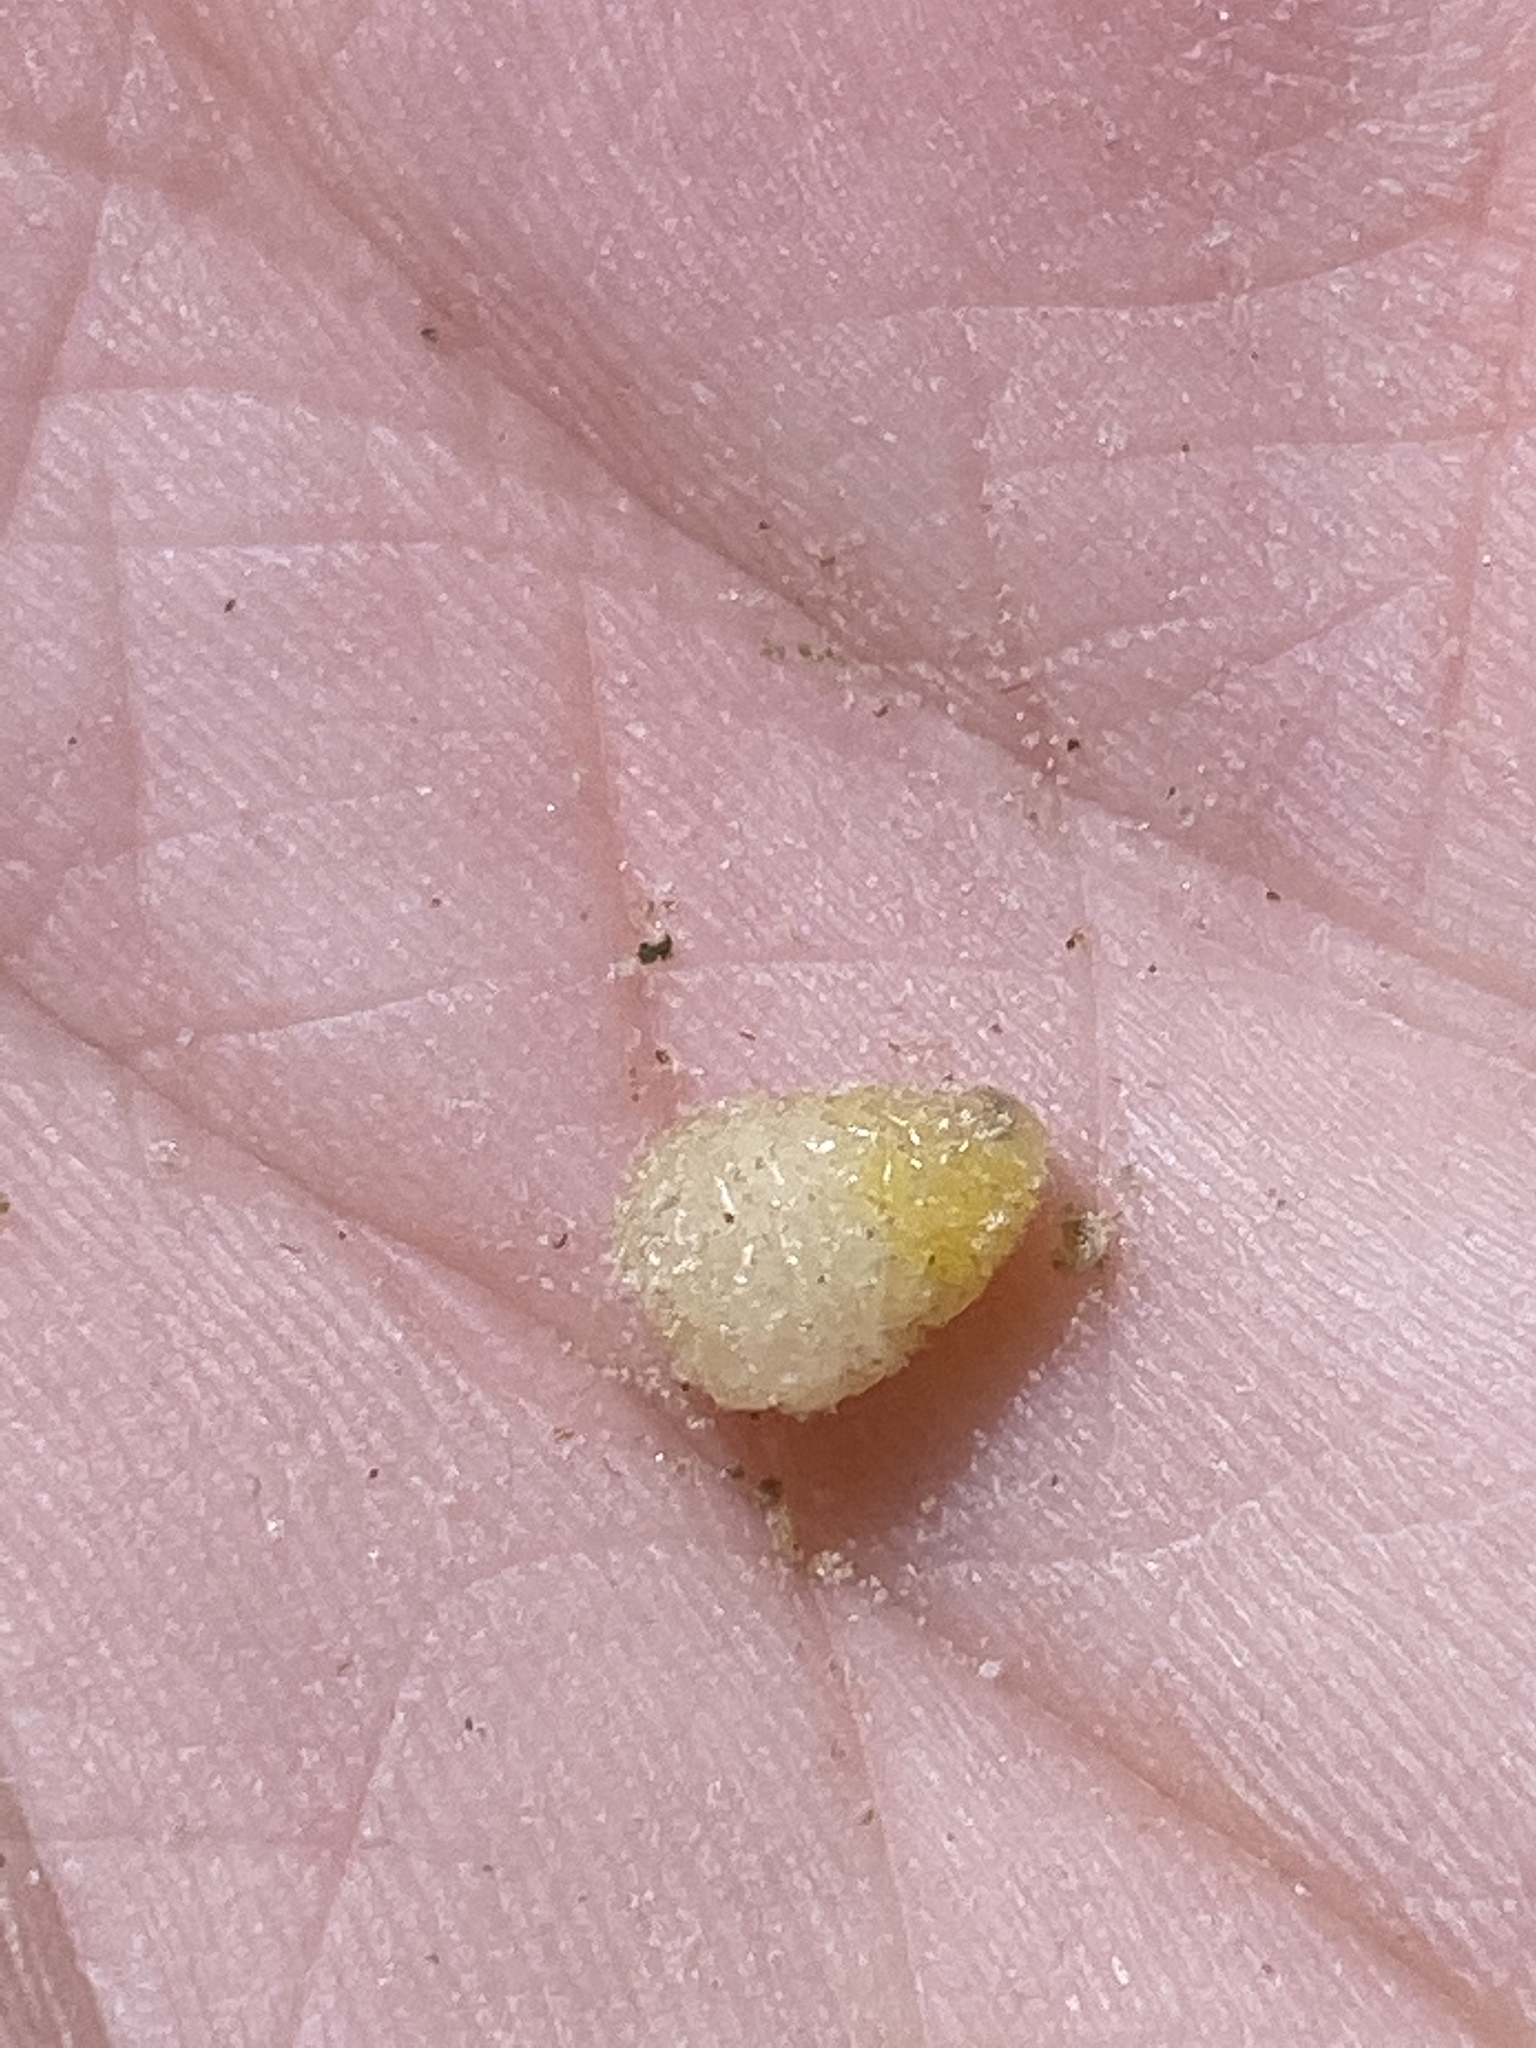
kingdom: Animalia
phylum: Arthropoda
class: Insecta
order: Diptera
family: Tephritidae
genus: Eurosta
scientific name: Eurosta solidaginis
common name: Goldenrod gall fly
